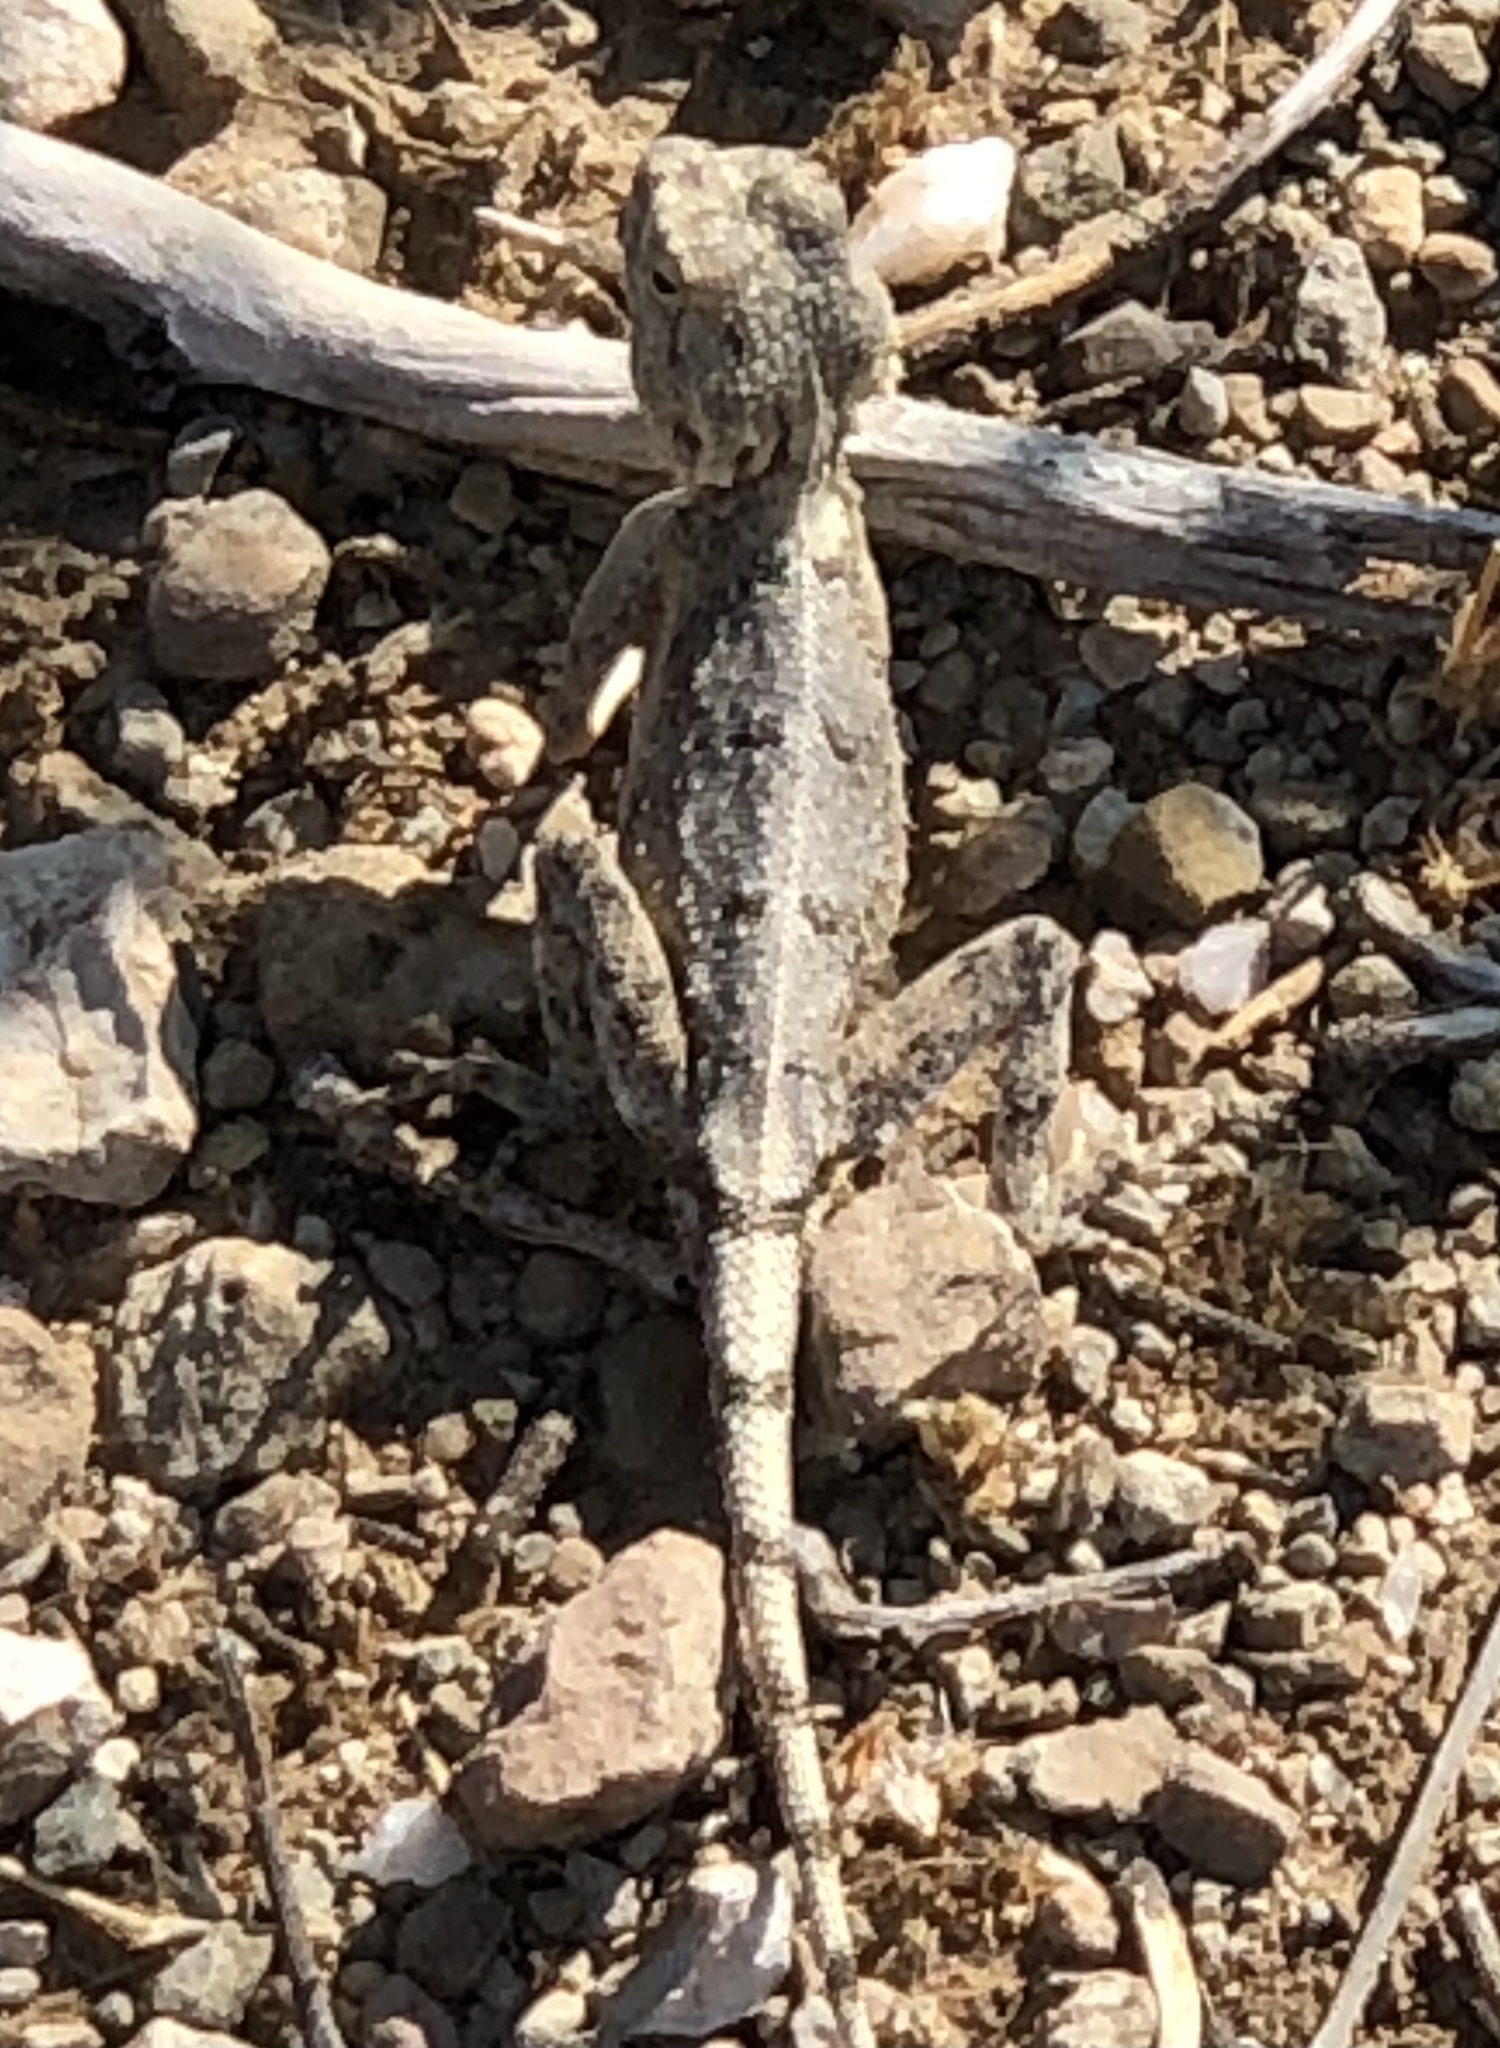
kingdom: Animalia
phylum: Chordata
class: Squamata
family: Agamidae
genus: Agama
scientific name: Agama anchietae
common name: Anchieta's agama
